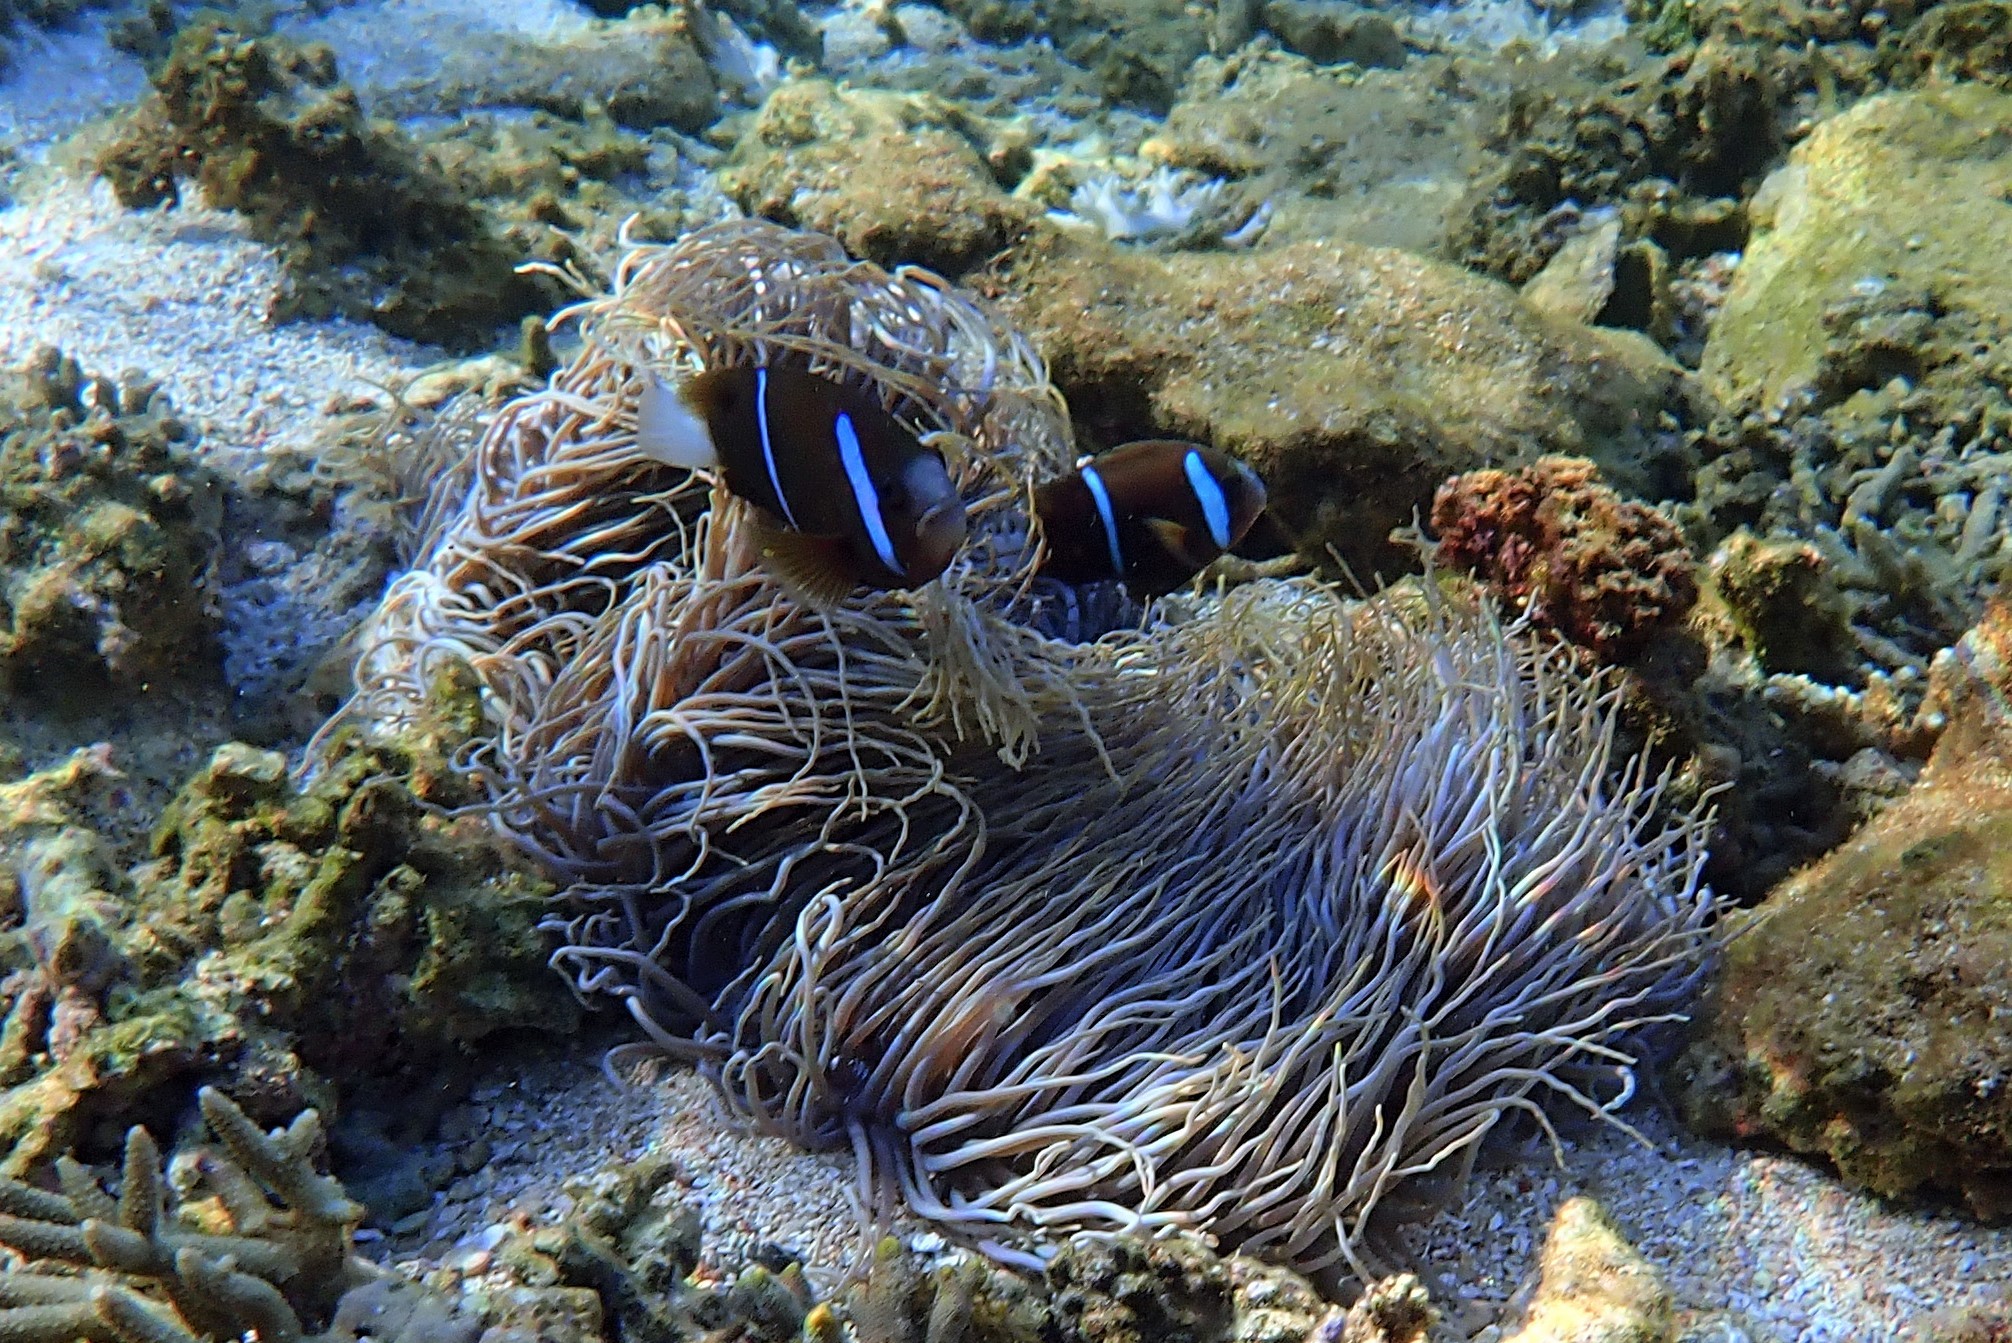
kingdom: Animalia
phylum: Chordata
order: Perciformes
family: Pomacentridae
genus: Amphiprion
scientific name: Amphiprion akindynos
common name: Barrier reef anemonefish
